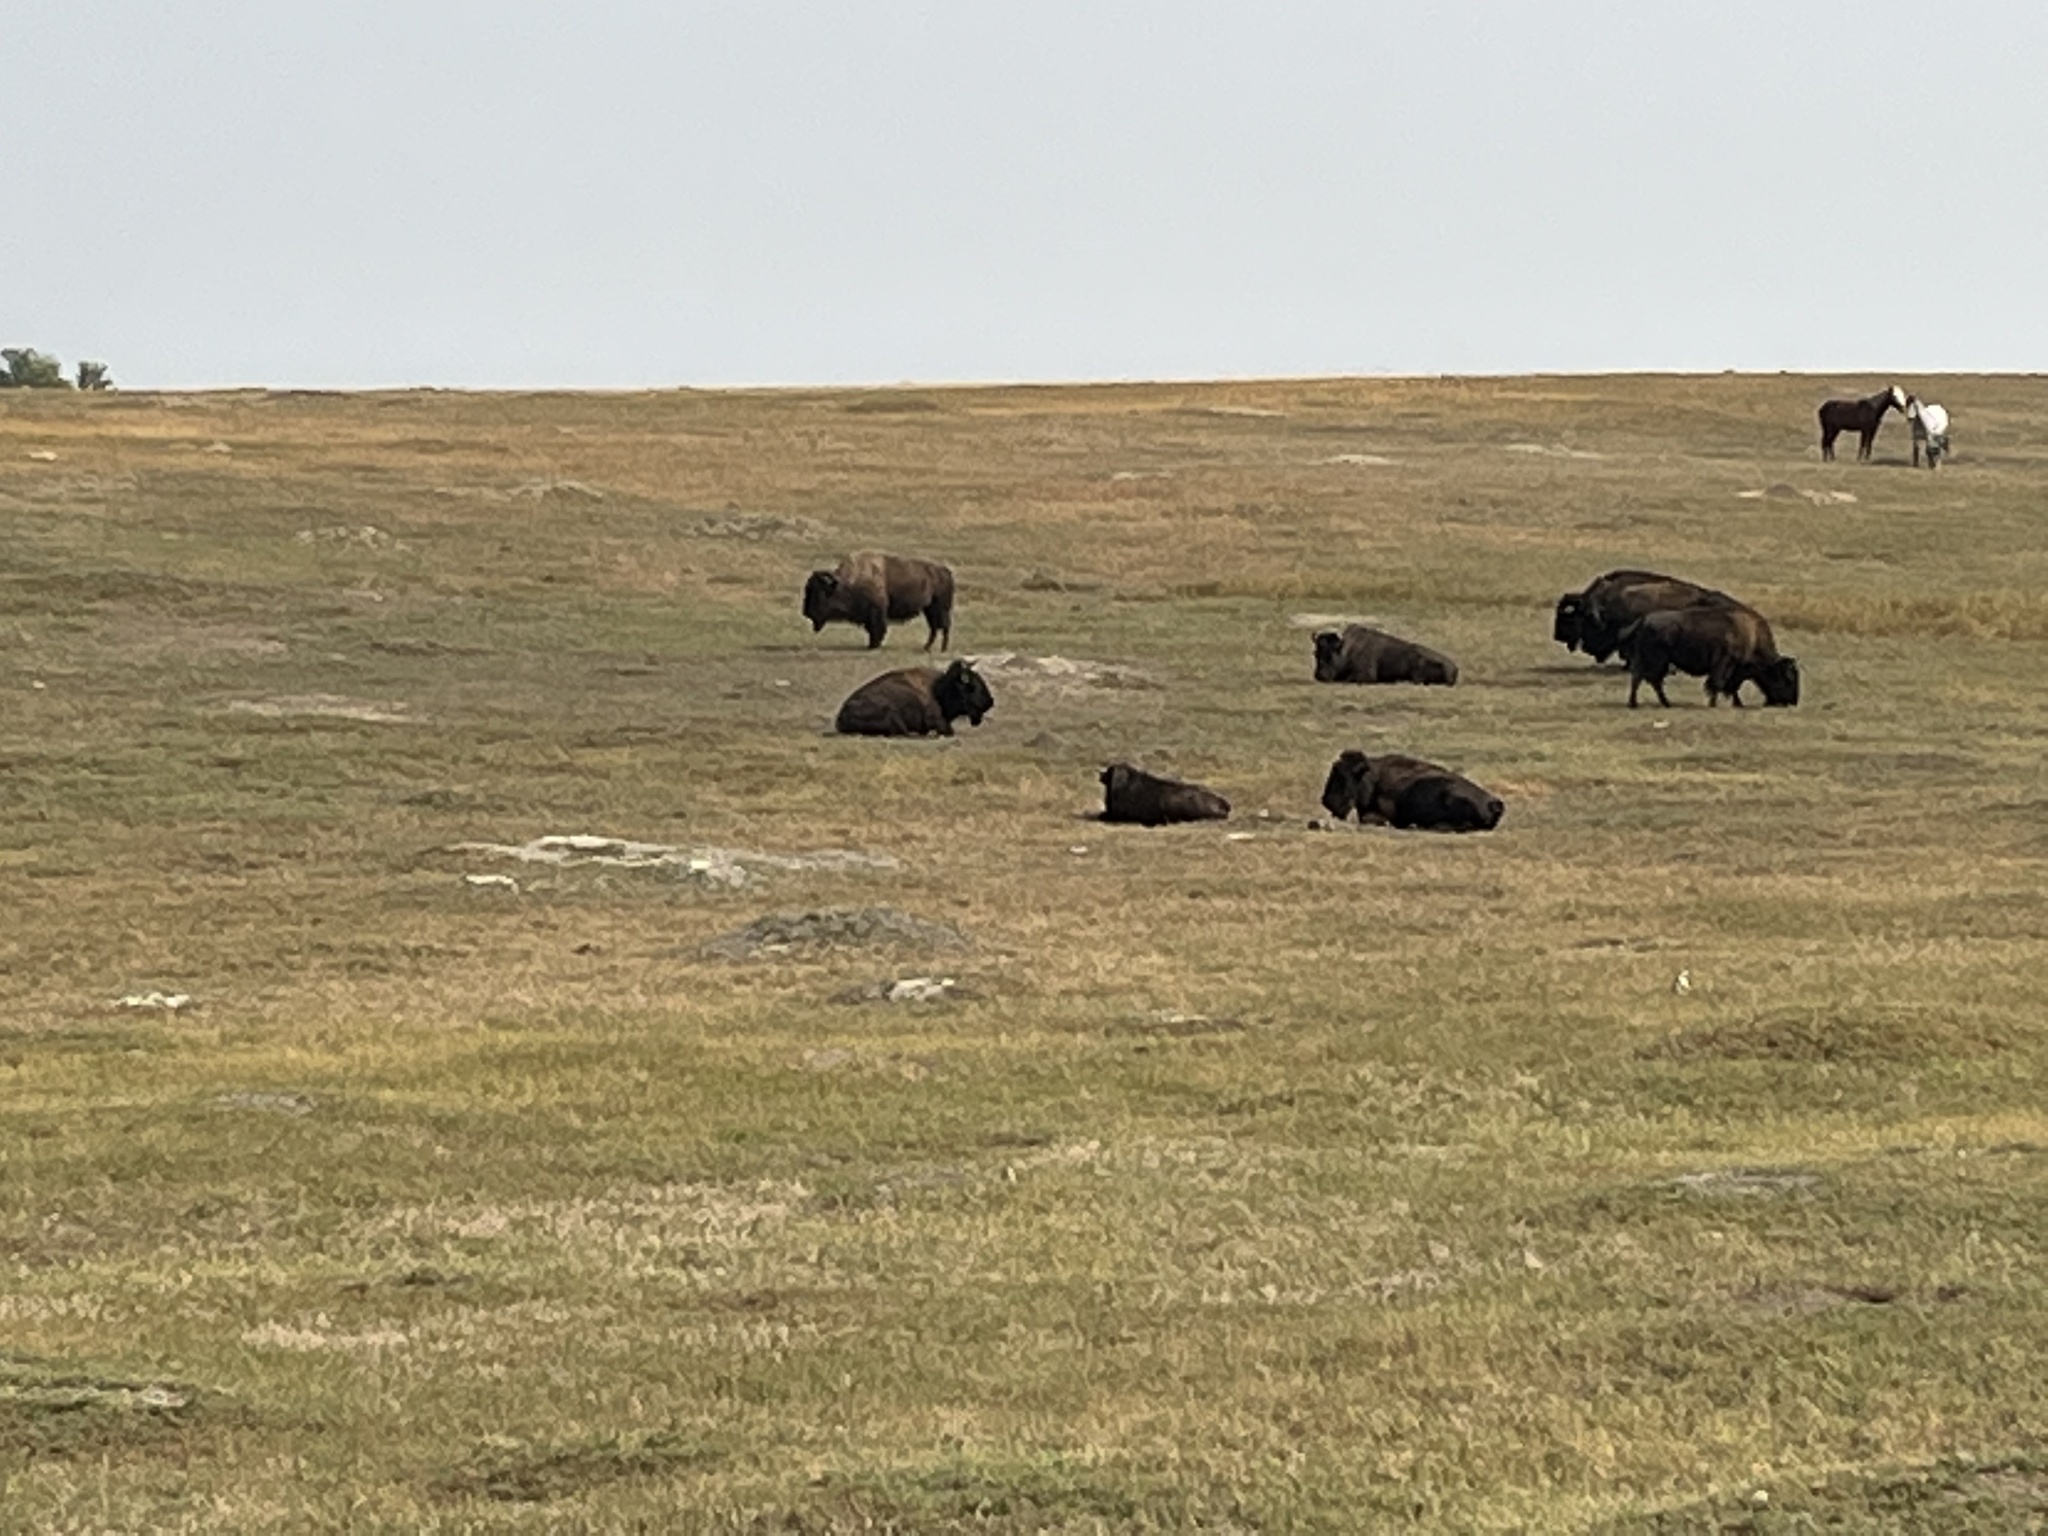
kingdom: Animalia
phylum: Chordata
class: Mammalia
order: Artiodactyla
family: Bovidae
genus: Bison
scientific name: Bison bison
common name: American bison
